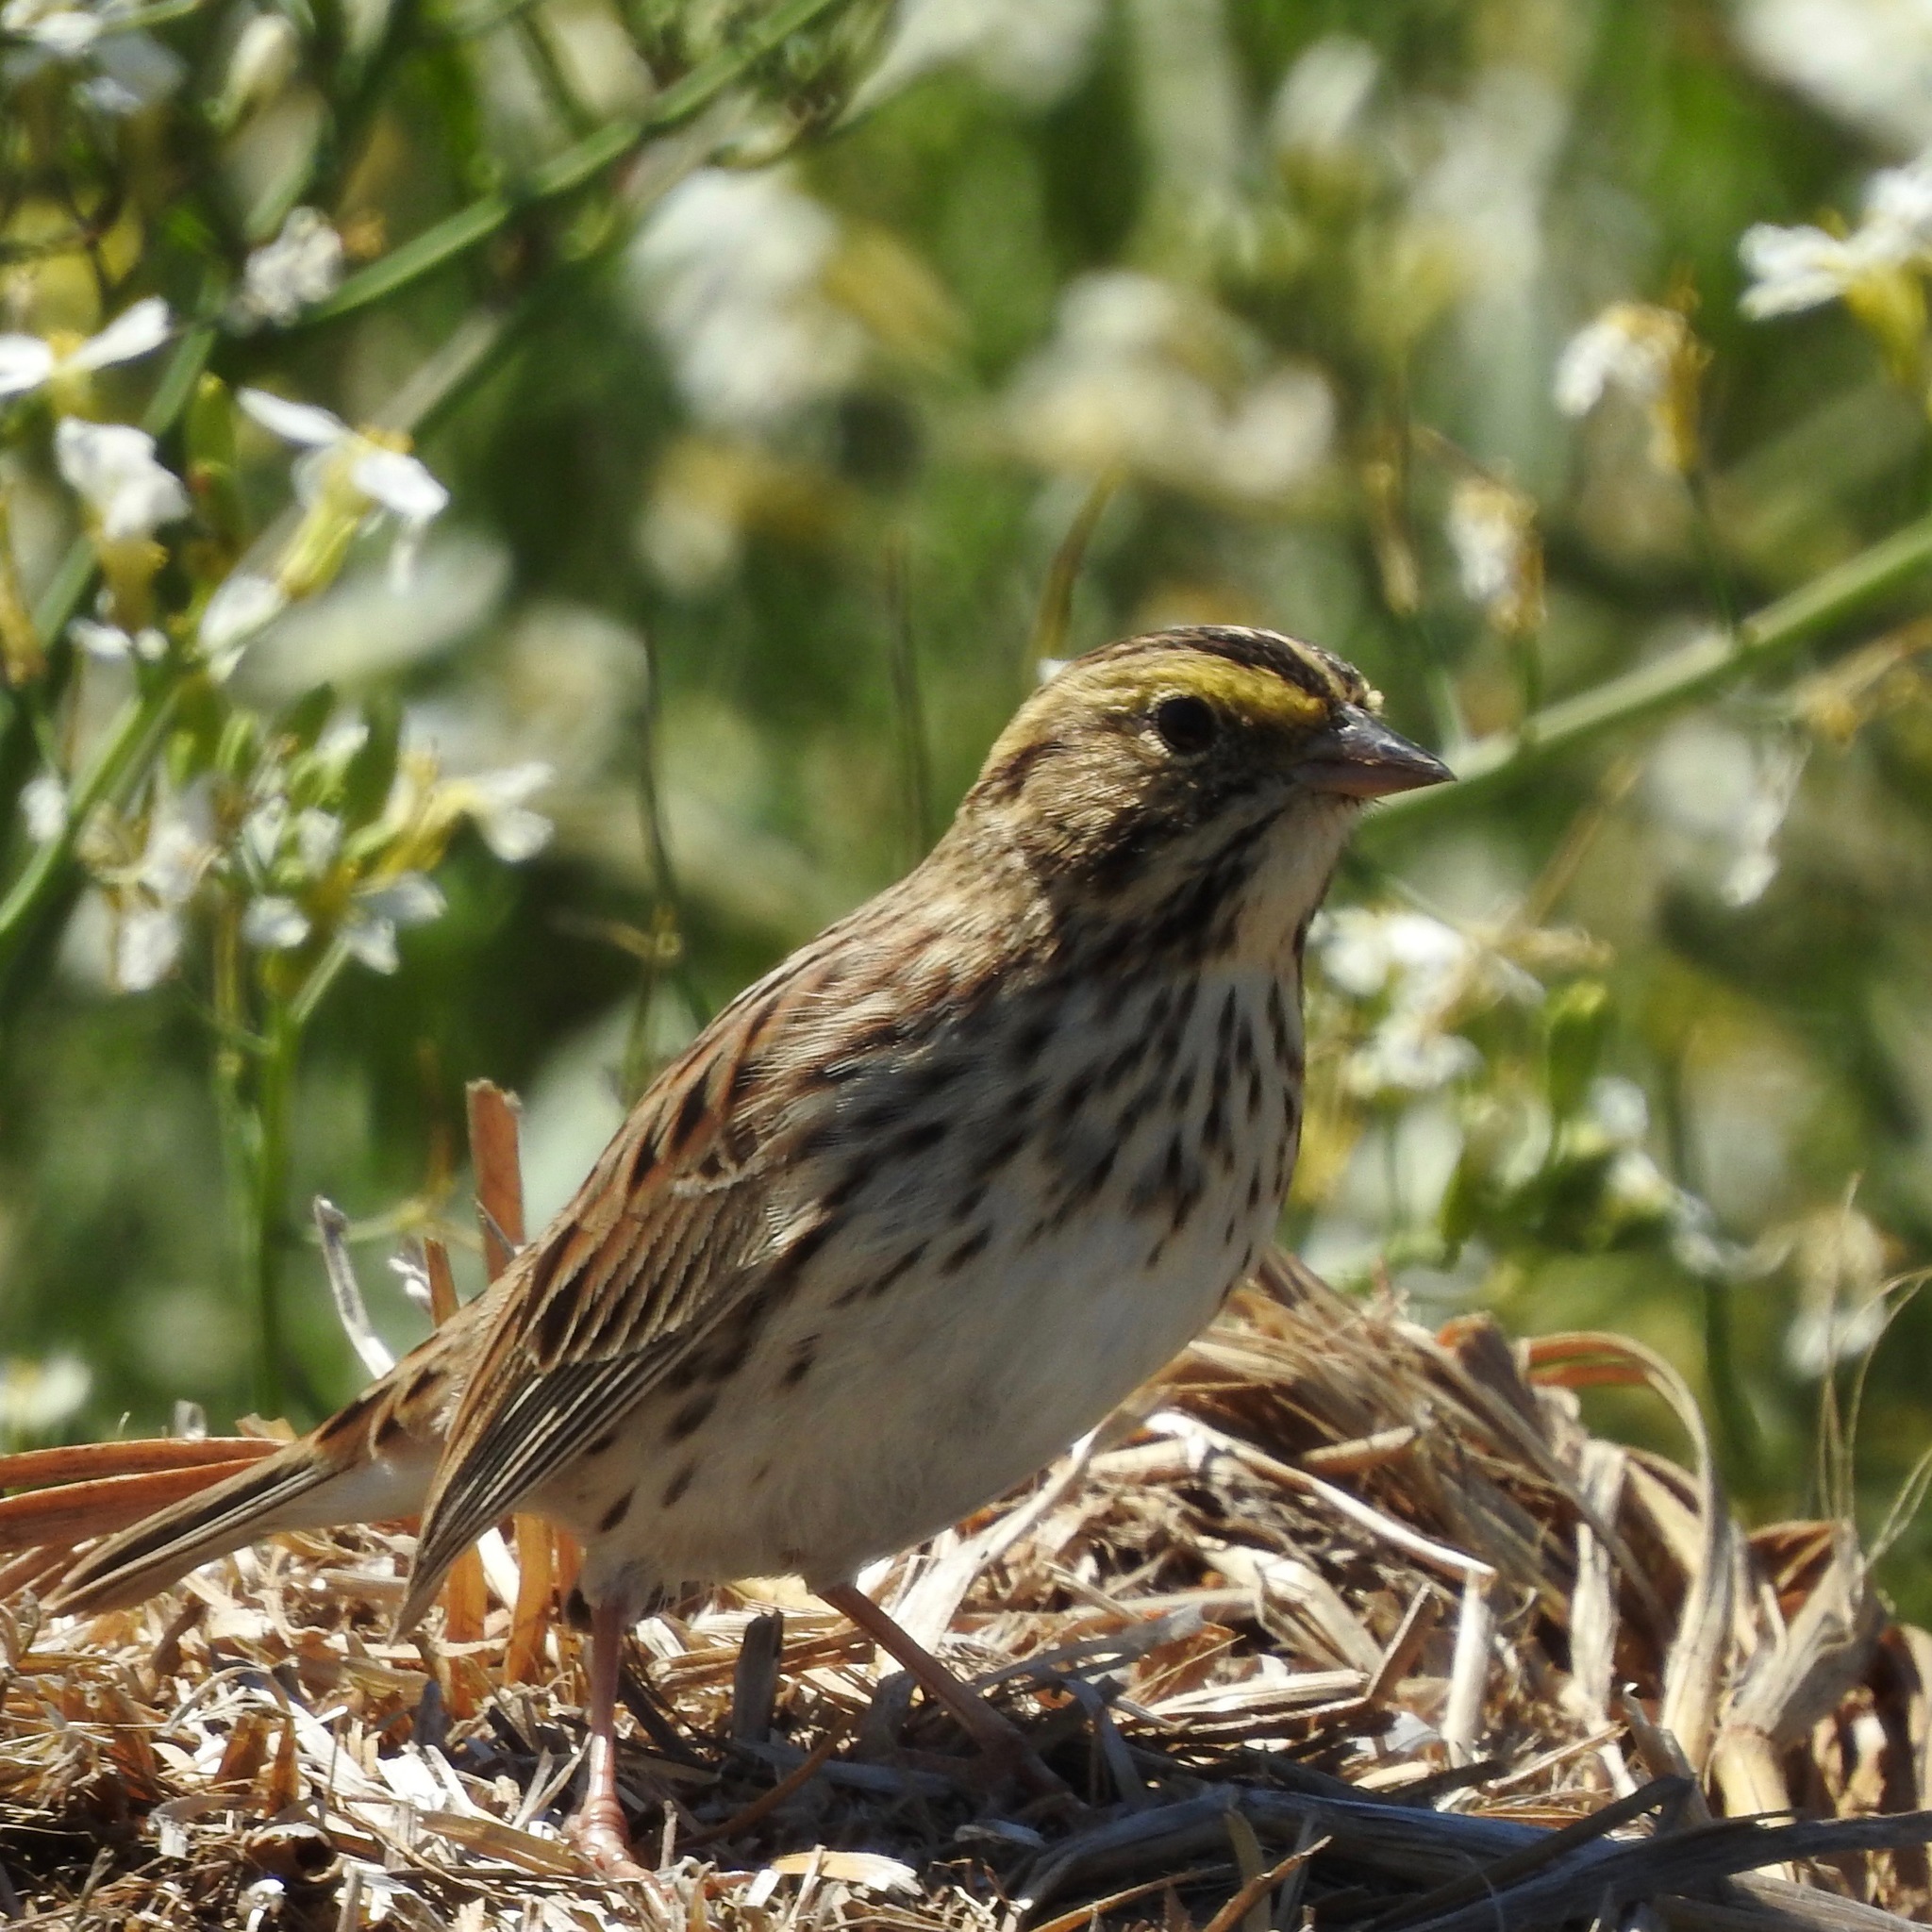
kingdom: Animalia
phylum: Chordata
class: Aves
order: Passeriformes
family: Passerellidae
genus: Passerculus
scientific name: Passerculus sandwichensis
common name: Savannah sparrow
